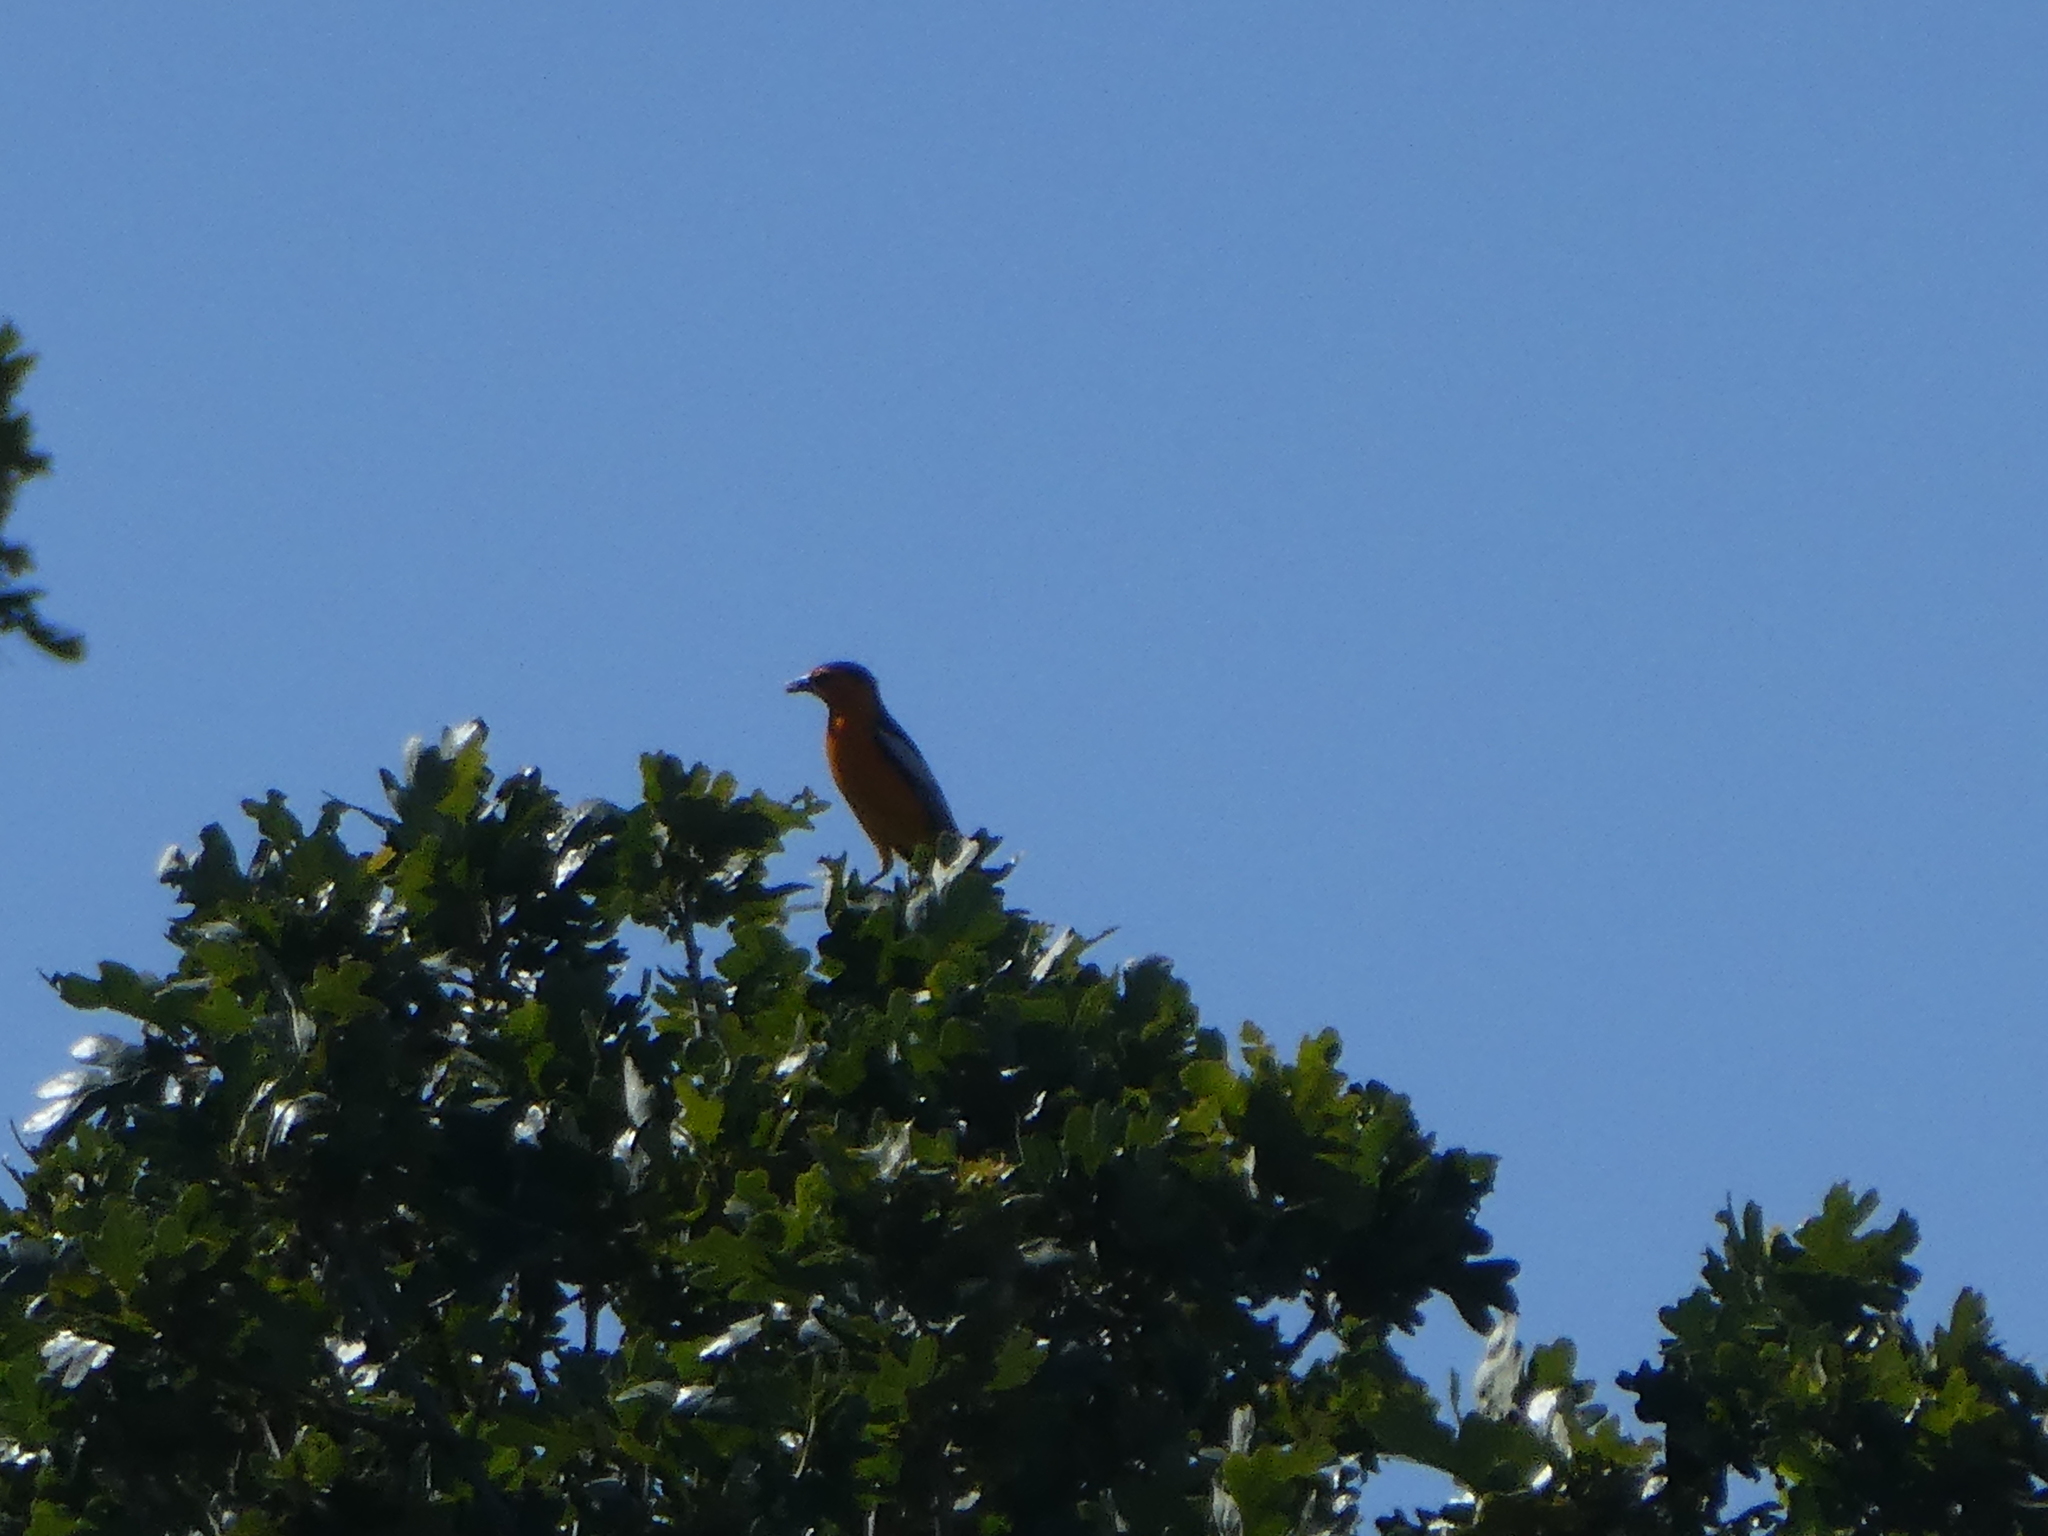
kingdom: Animalia
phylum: Chordata
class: Aves
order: Passeriformes
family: Icteridae
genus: Icterus
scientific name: Icterus bullockii
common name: Bullock's oriole
